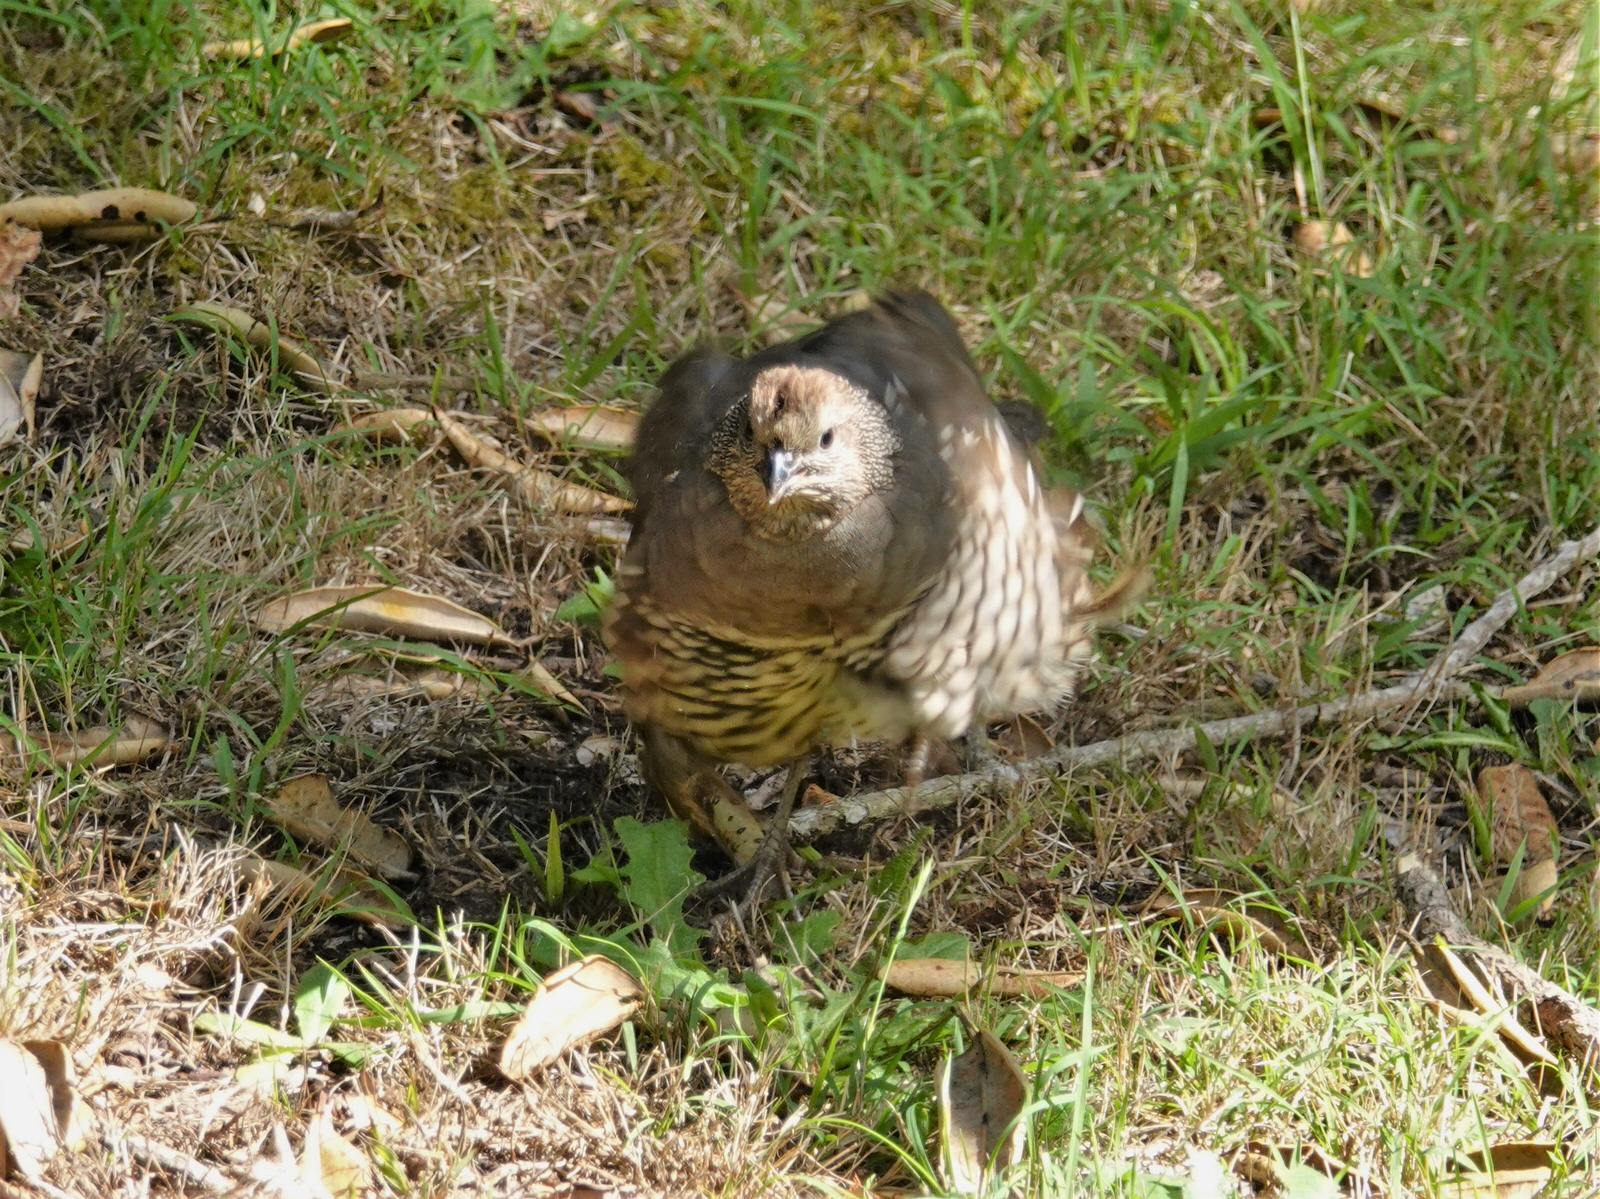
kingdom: Animalia
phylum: Chordata
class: Aves
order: Galliformes
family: Odontophoridae
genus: Callipepla
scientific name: Callipepla californica
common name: California quail
